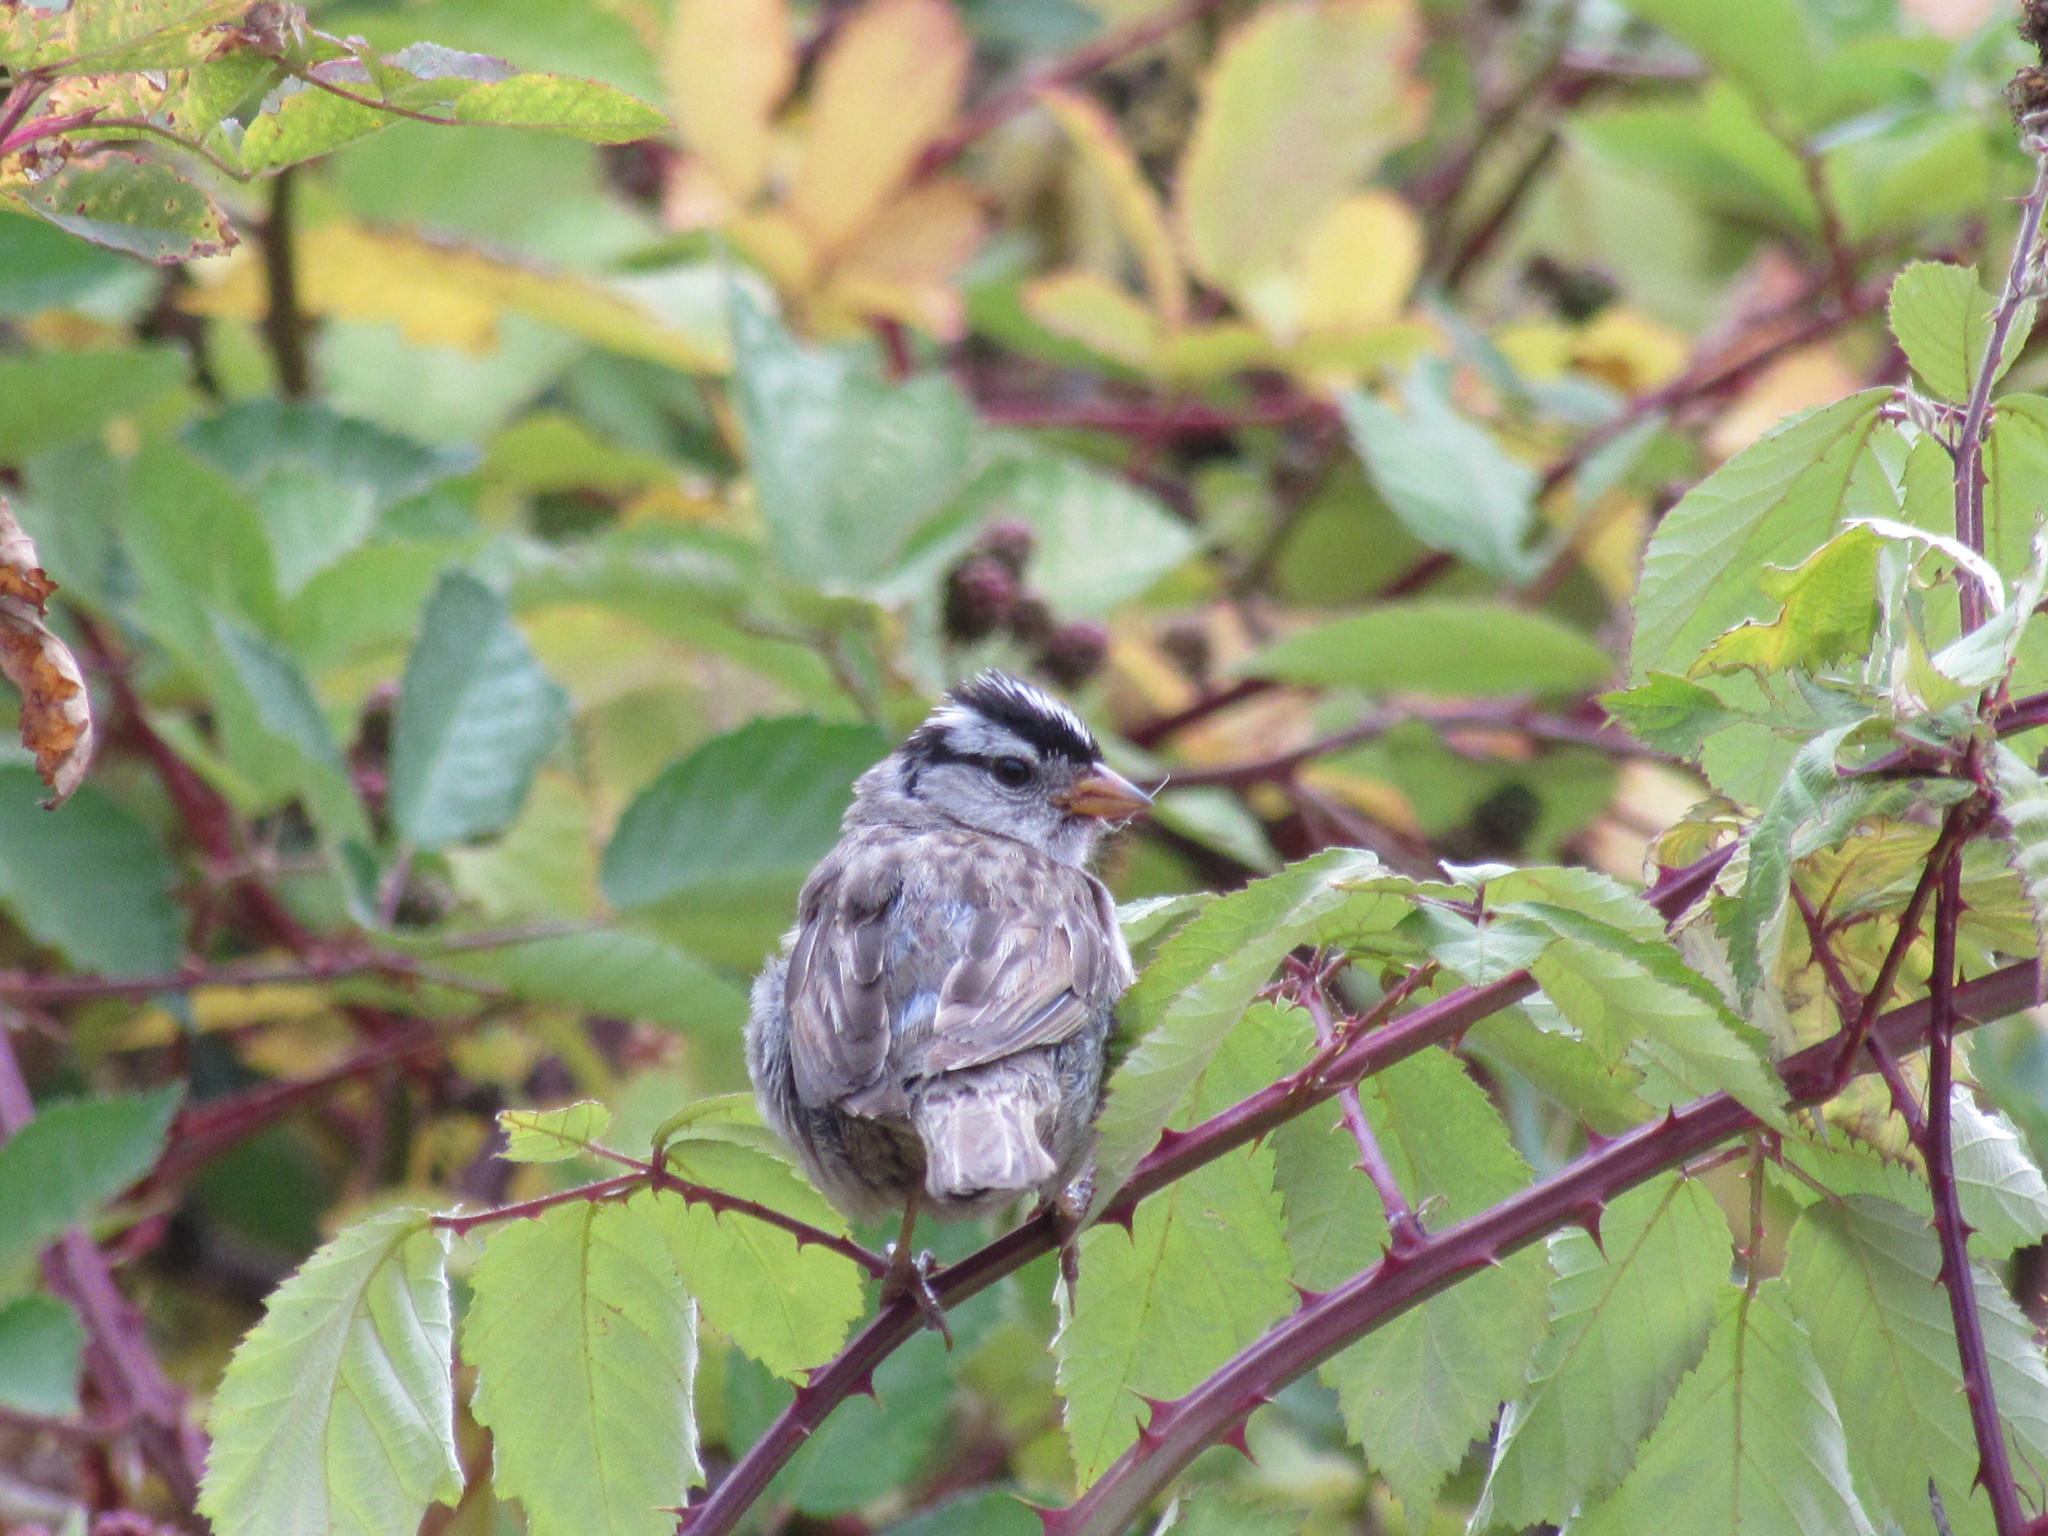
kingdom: Animalia
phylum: Chordata
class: Aves
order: Passeriformes
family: Passerellidae
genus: Zonotrichia
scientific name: Zonotrichia leucophrys
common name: White-crowned sparrow
